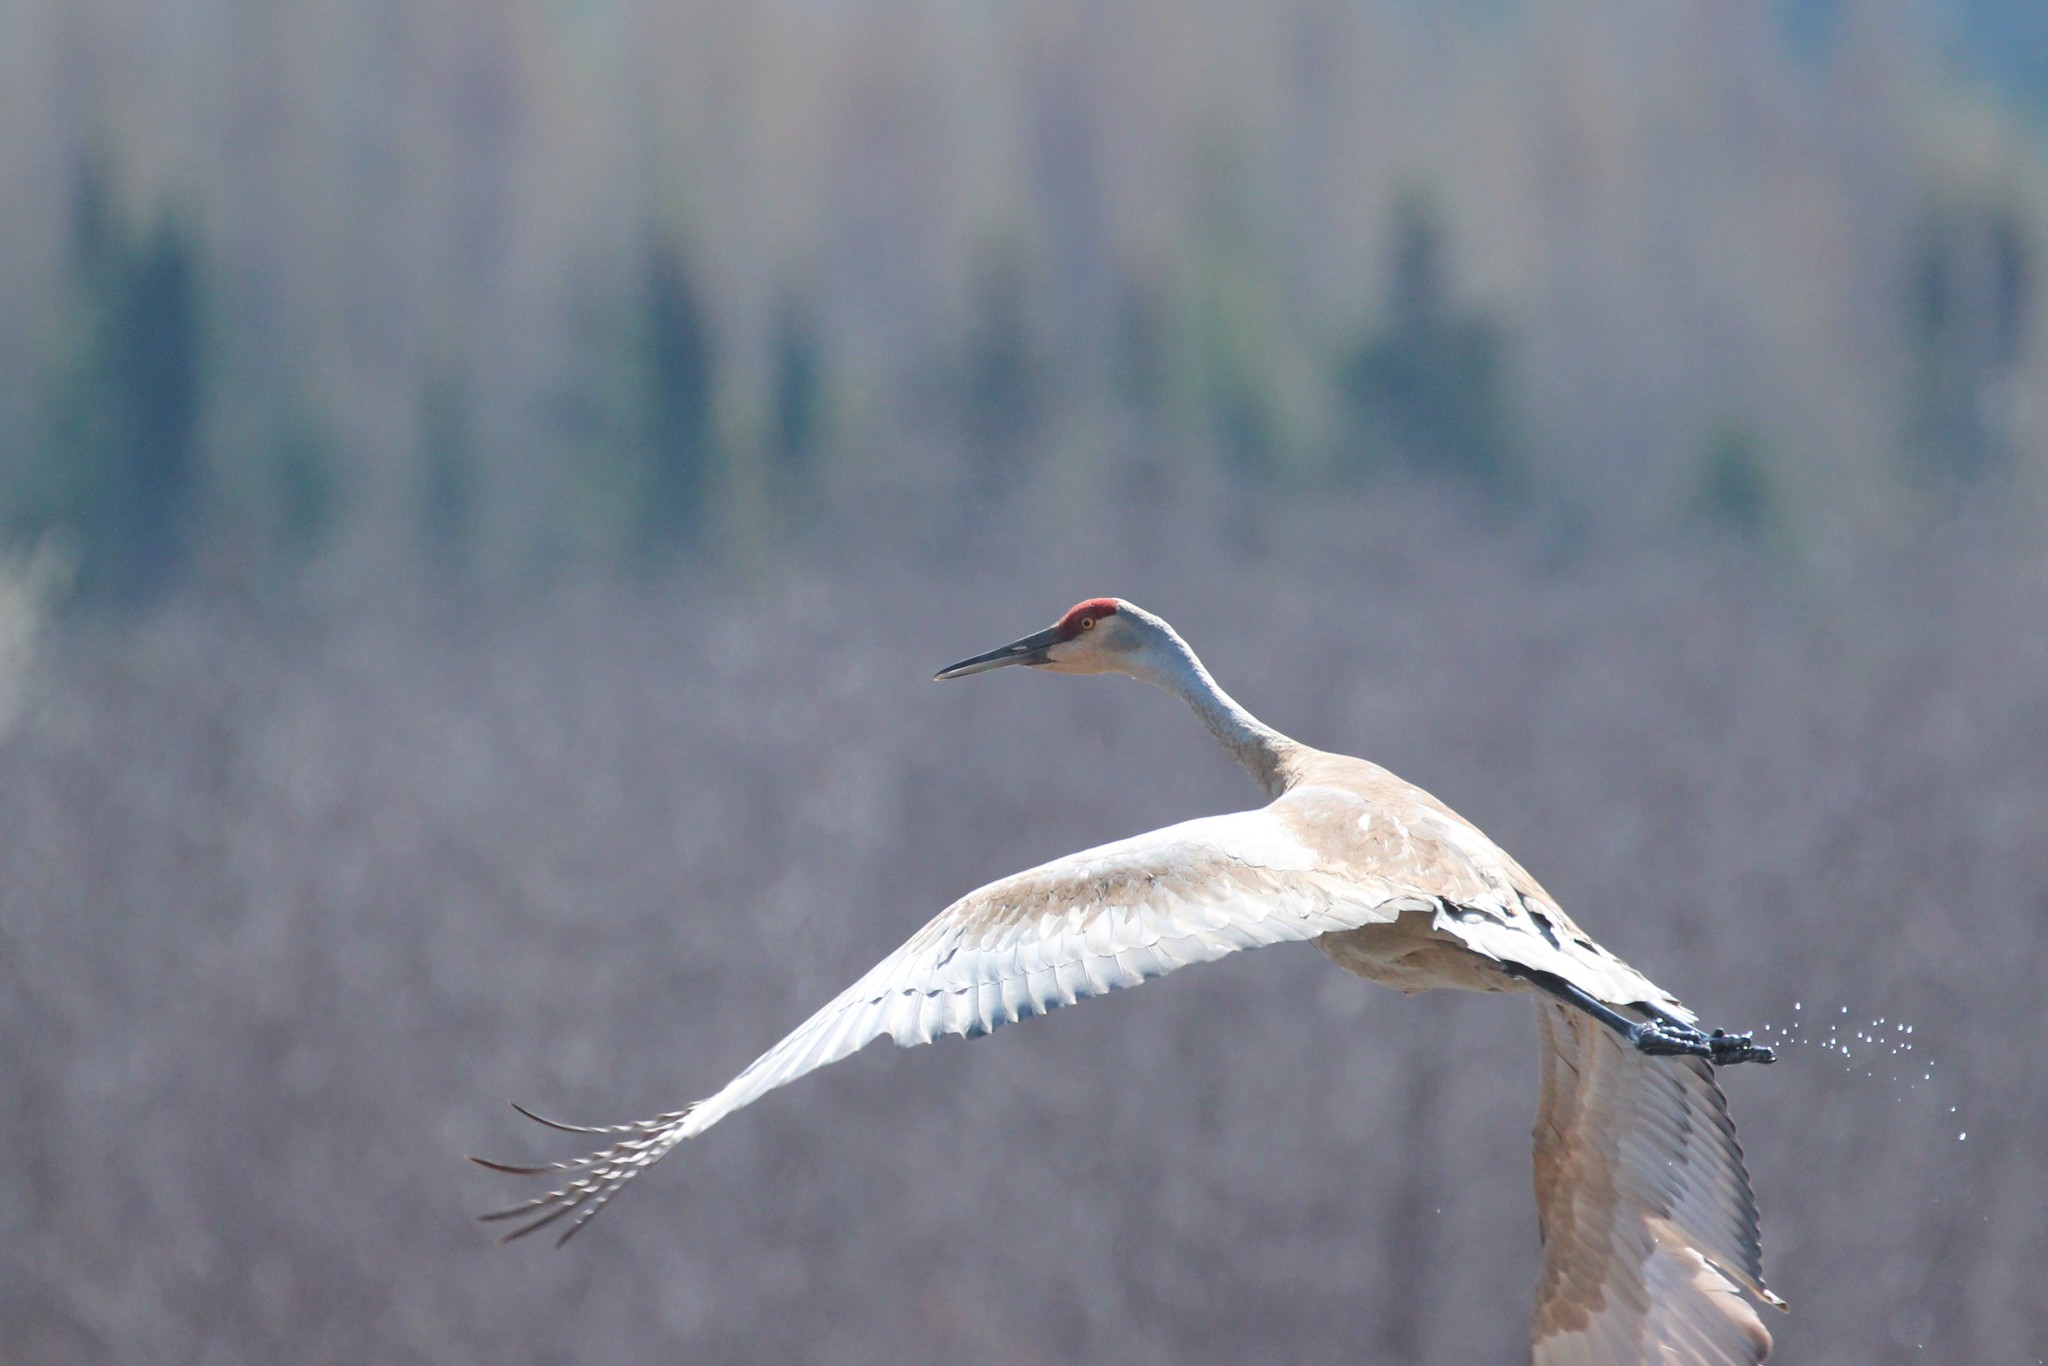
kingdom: Animalia
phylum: Chordata
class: Aves
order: Gruiformes
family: Gruidae
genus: Grus
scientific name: Grus canadensis
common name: Sandhill crane
